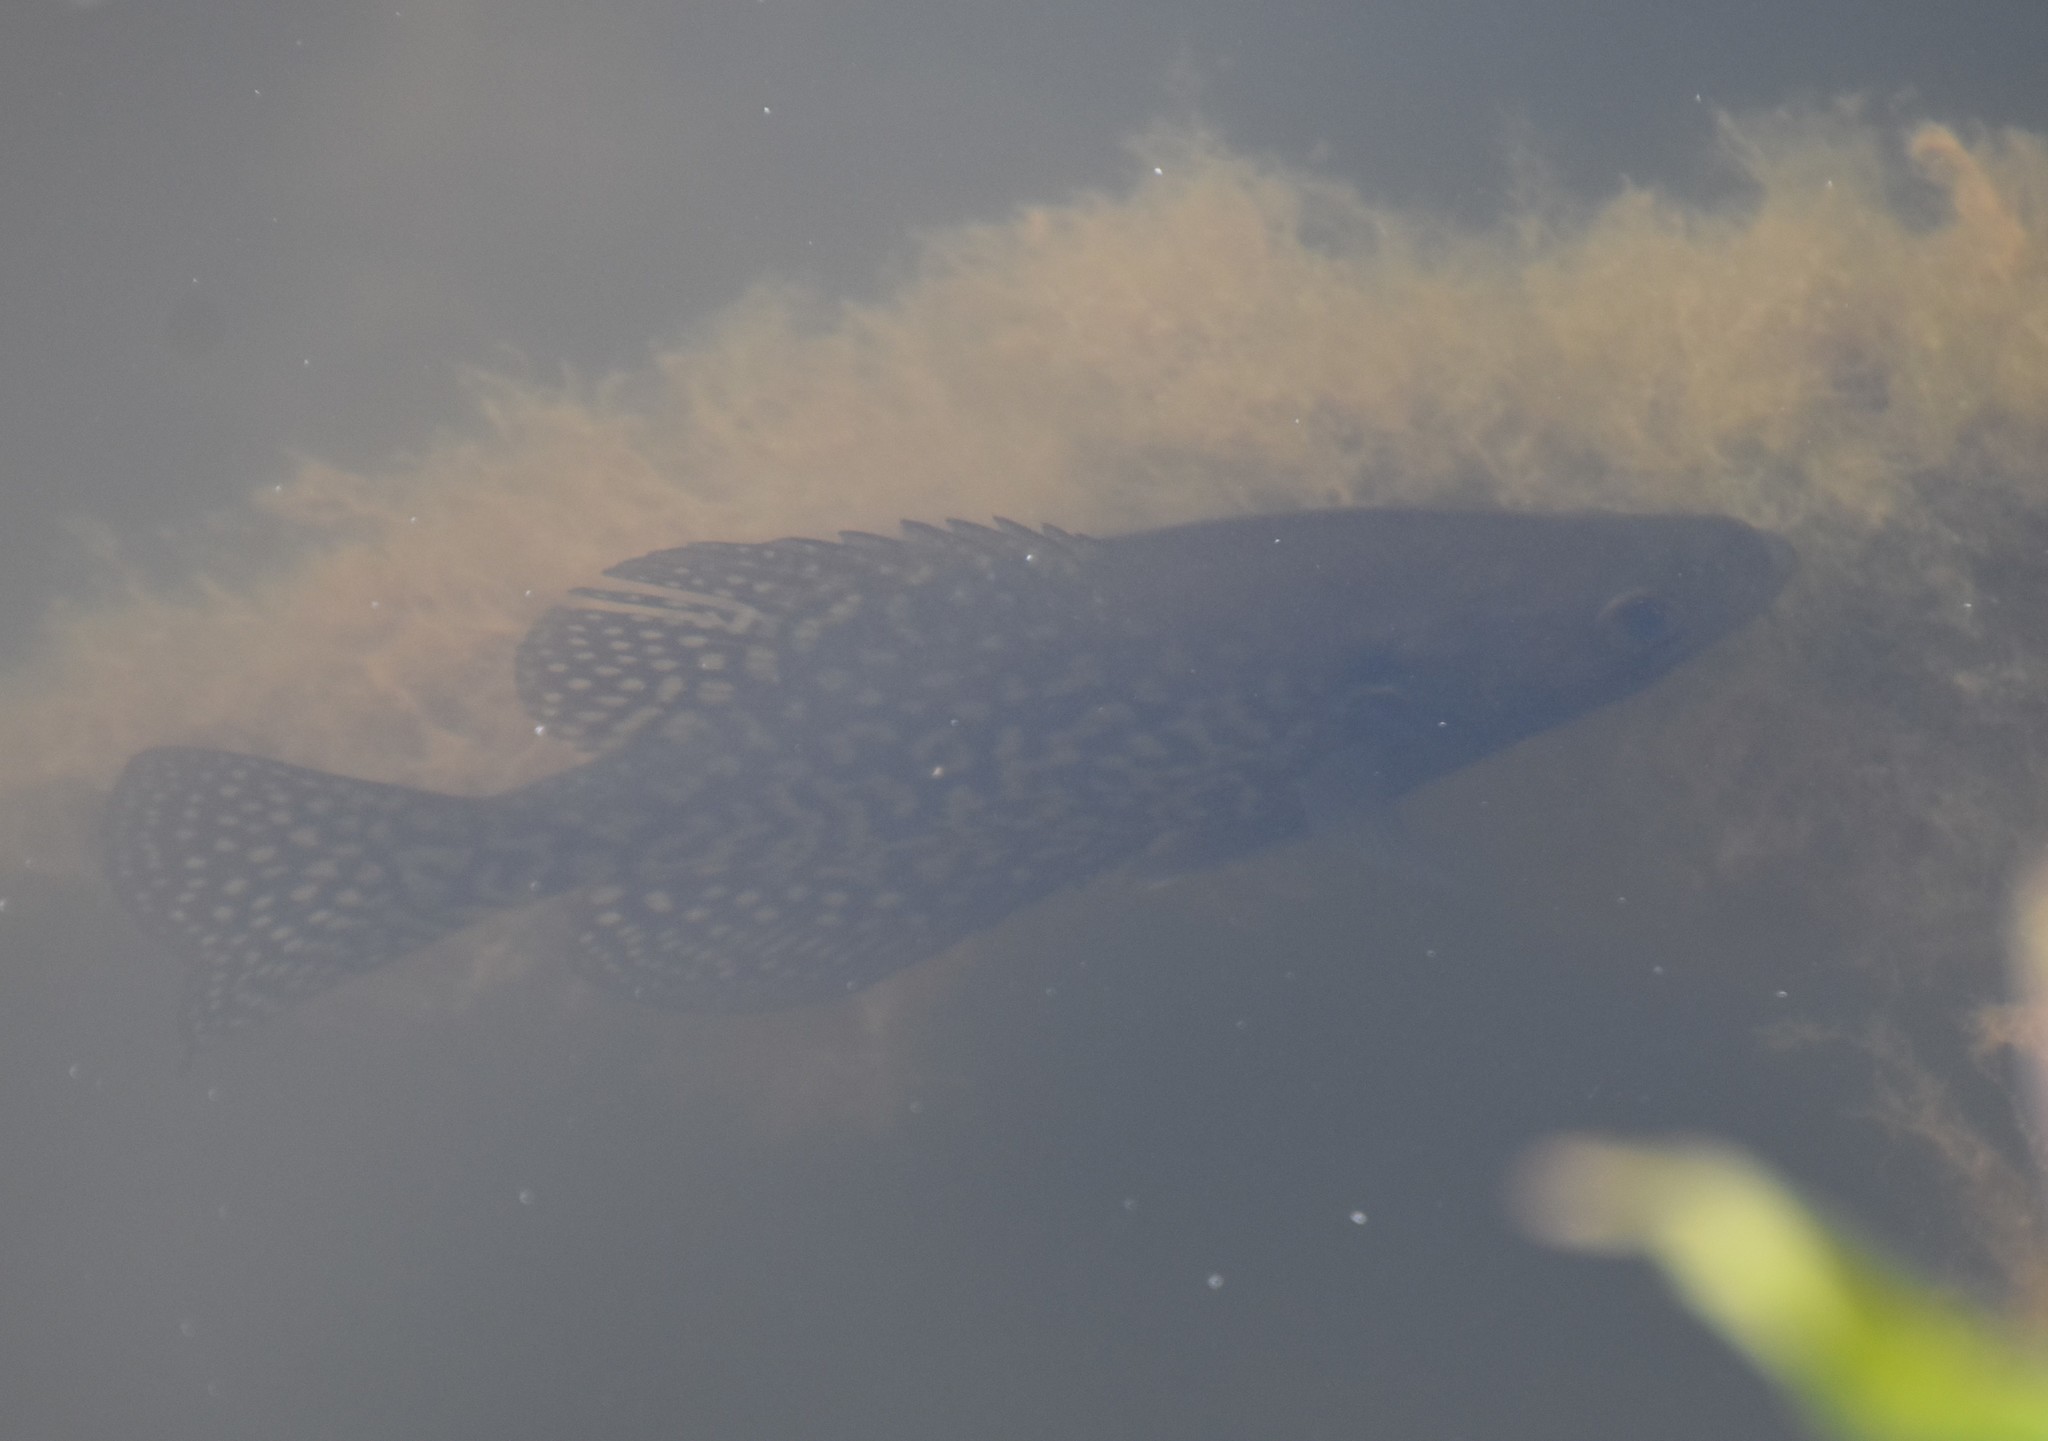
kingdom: Animalia
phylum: Chordata
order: Perciformes
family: Centrarchidae
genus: Pomoxis
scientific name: Pomoxis nigromaculatus
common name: Black crappie
